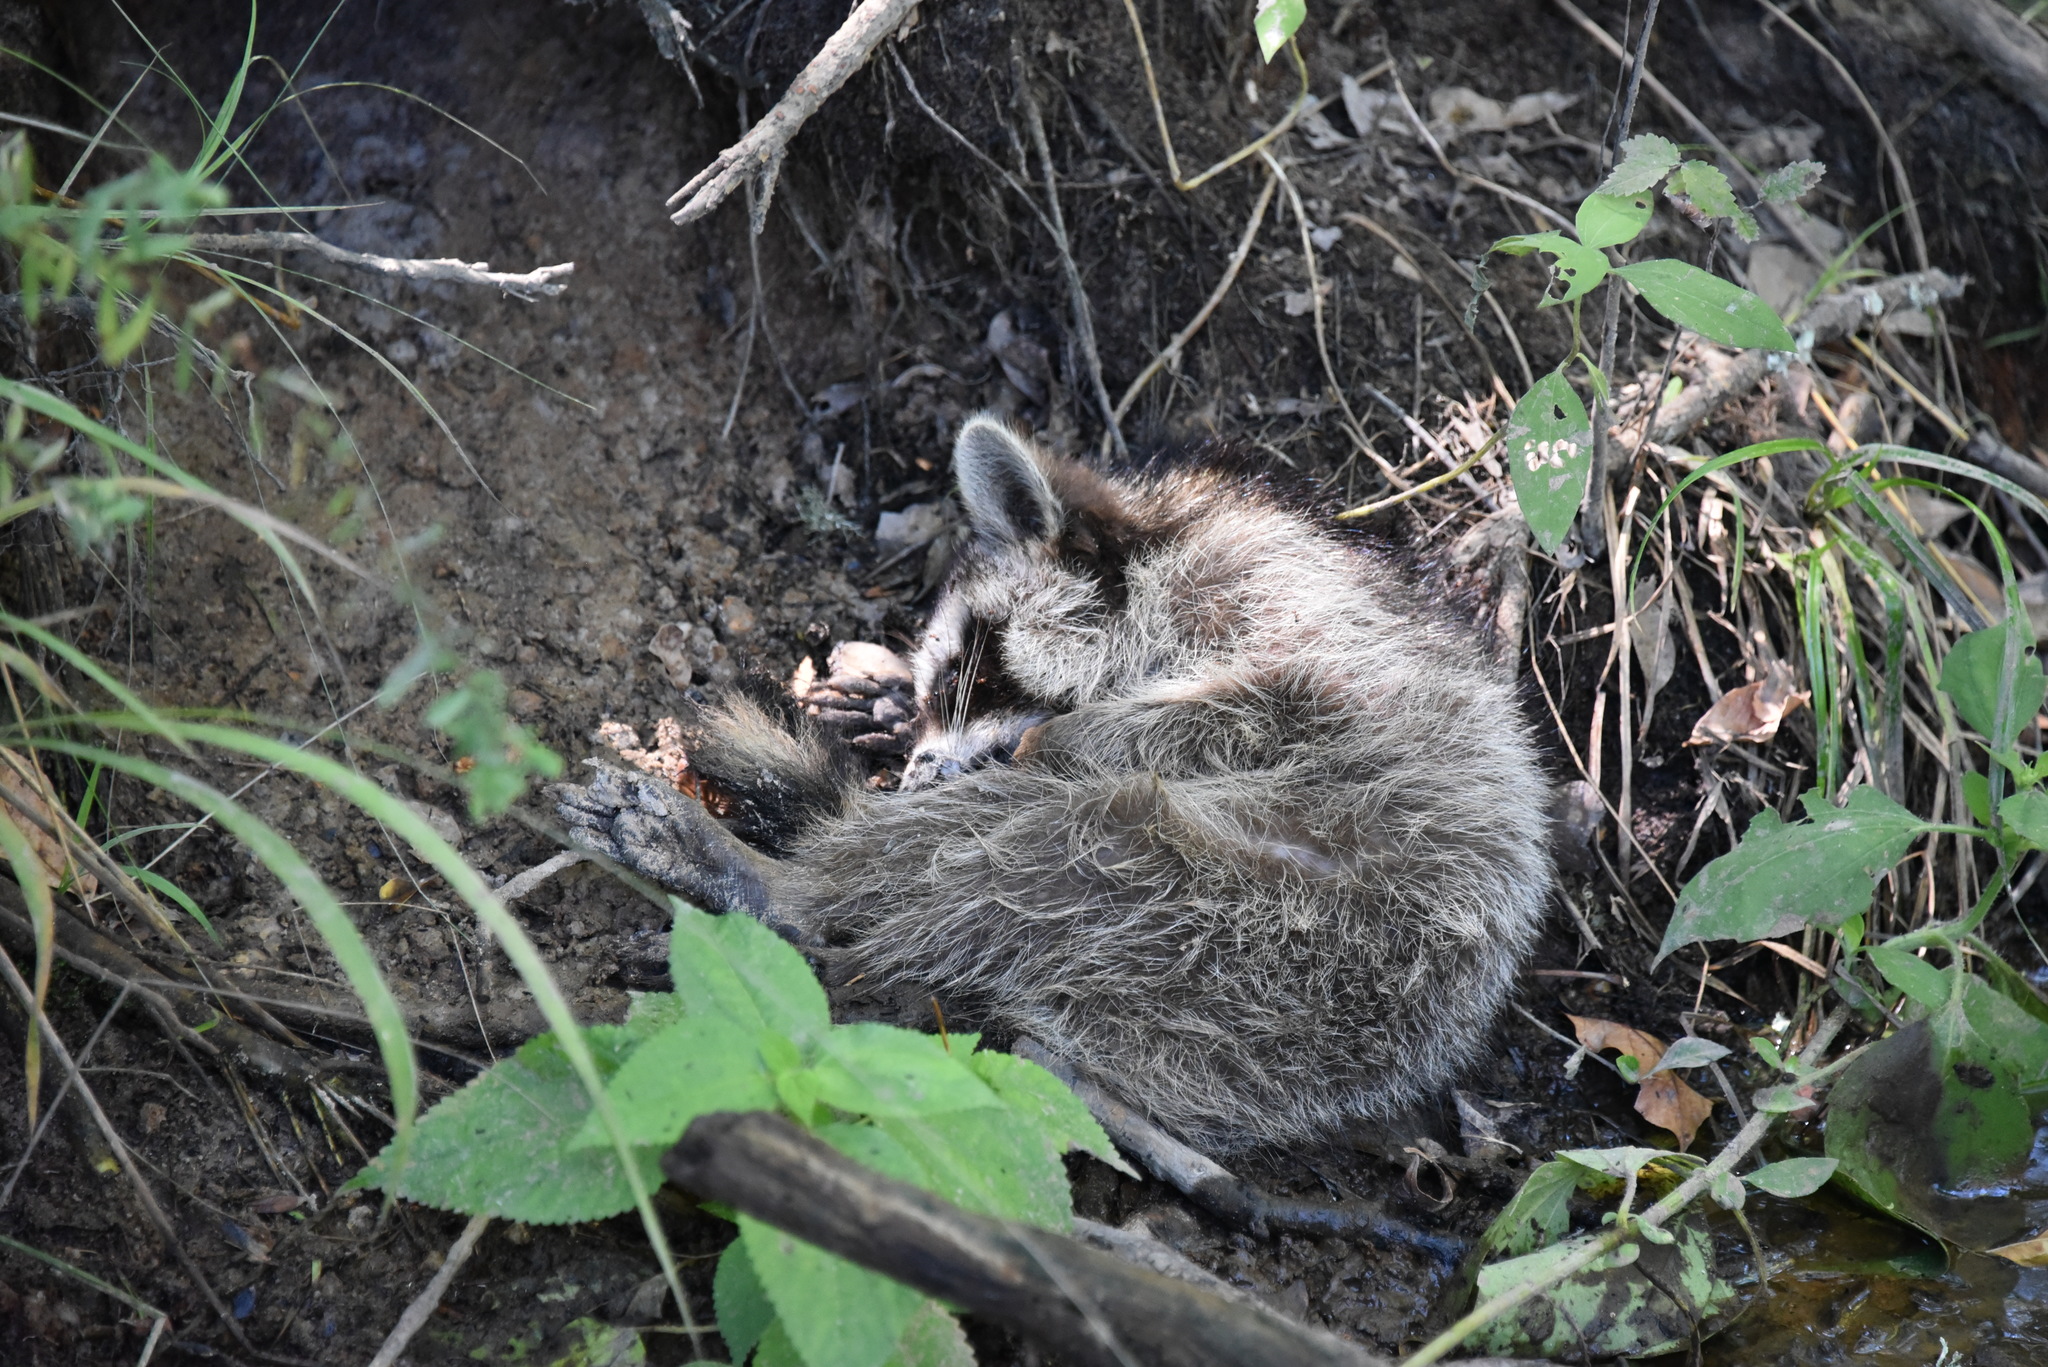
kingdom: Animalia
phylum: Chordata
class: Mammalia
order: Carnivora
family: Procyonidae
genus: Procyon
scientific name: Procyon lotor
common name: Raccoon
